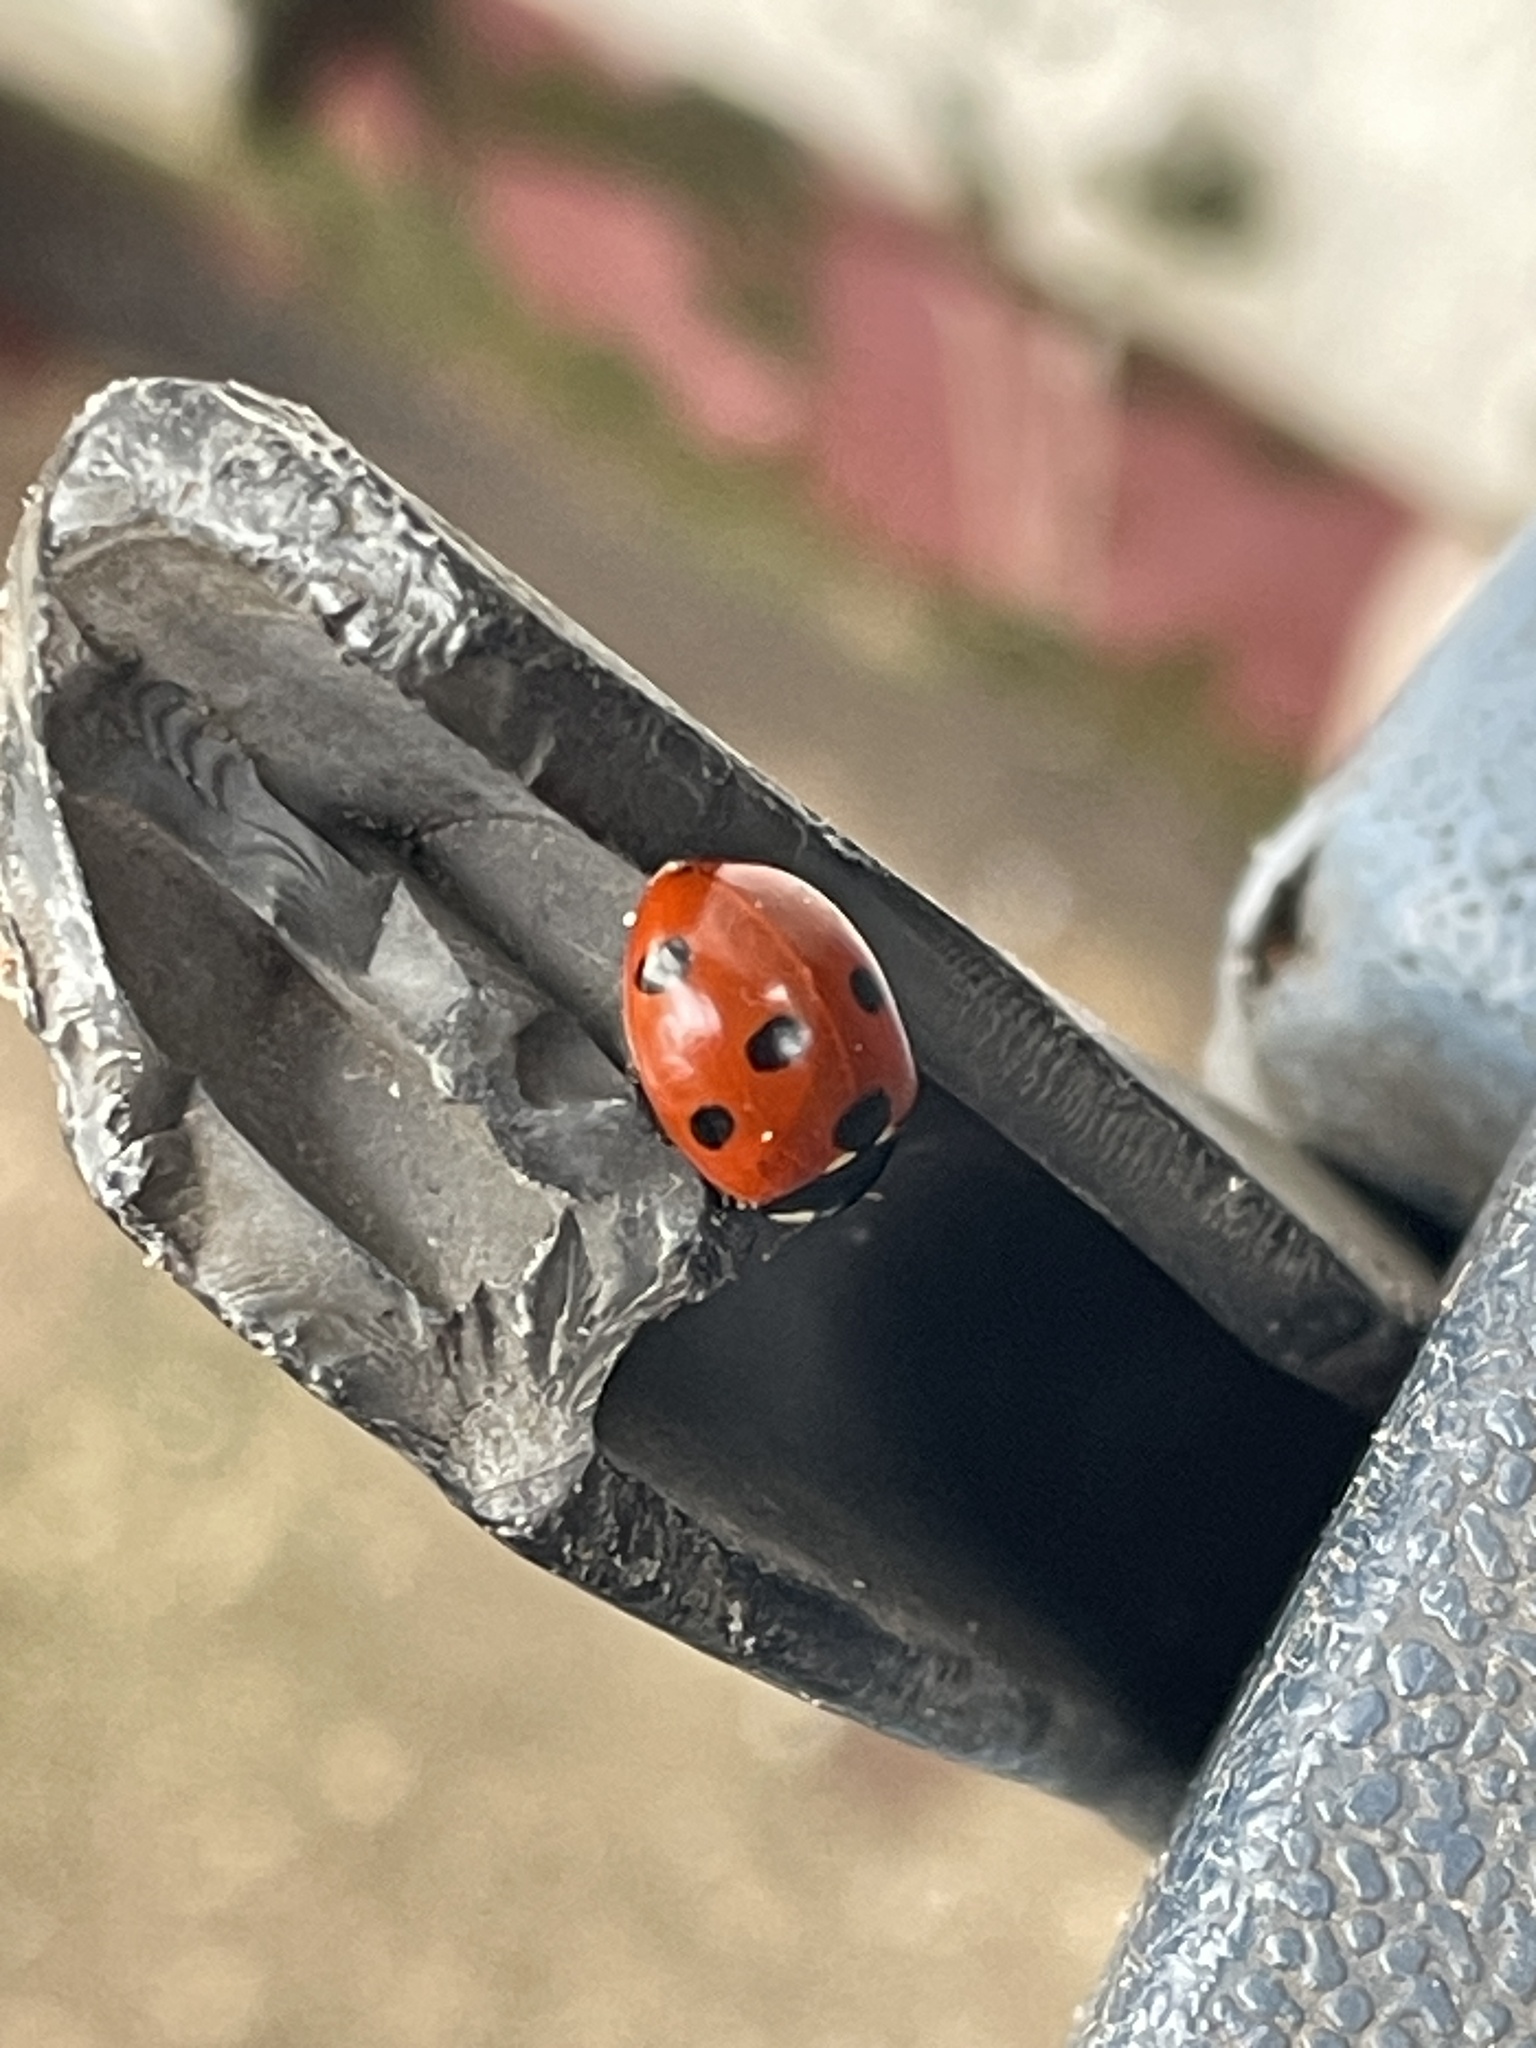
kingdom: Animalia
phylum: Arthropoda
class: Insecta
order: Coleoptera
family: Coccinellidae
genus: Coccinella
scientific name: Coccinella septempunctata
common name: Sevenspotted lady beetle
